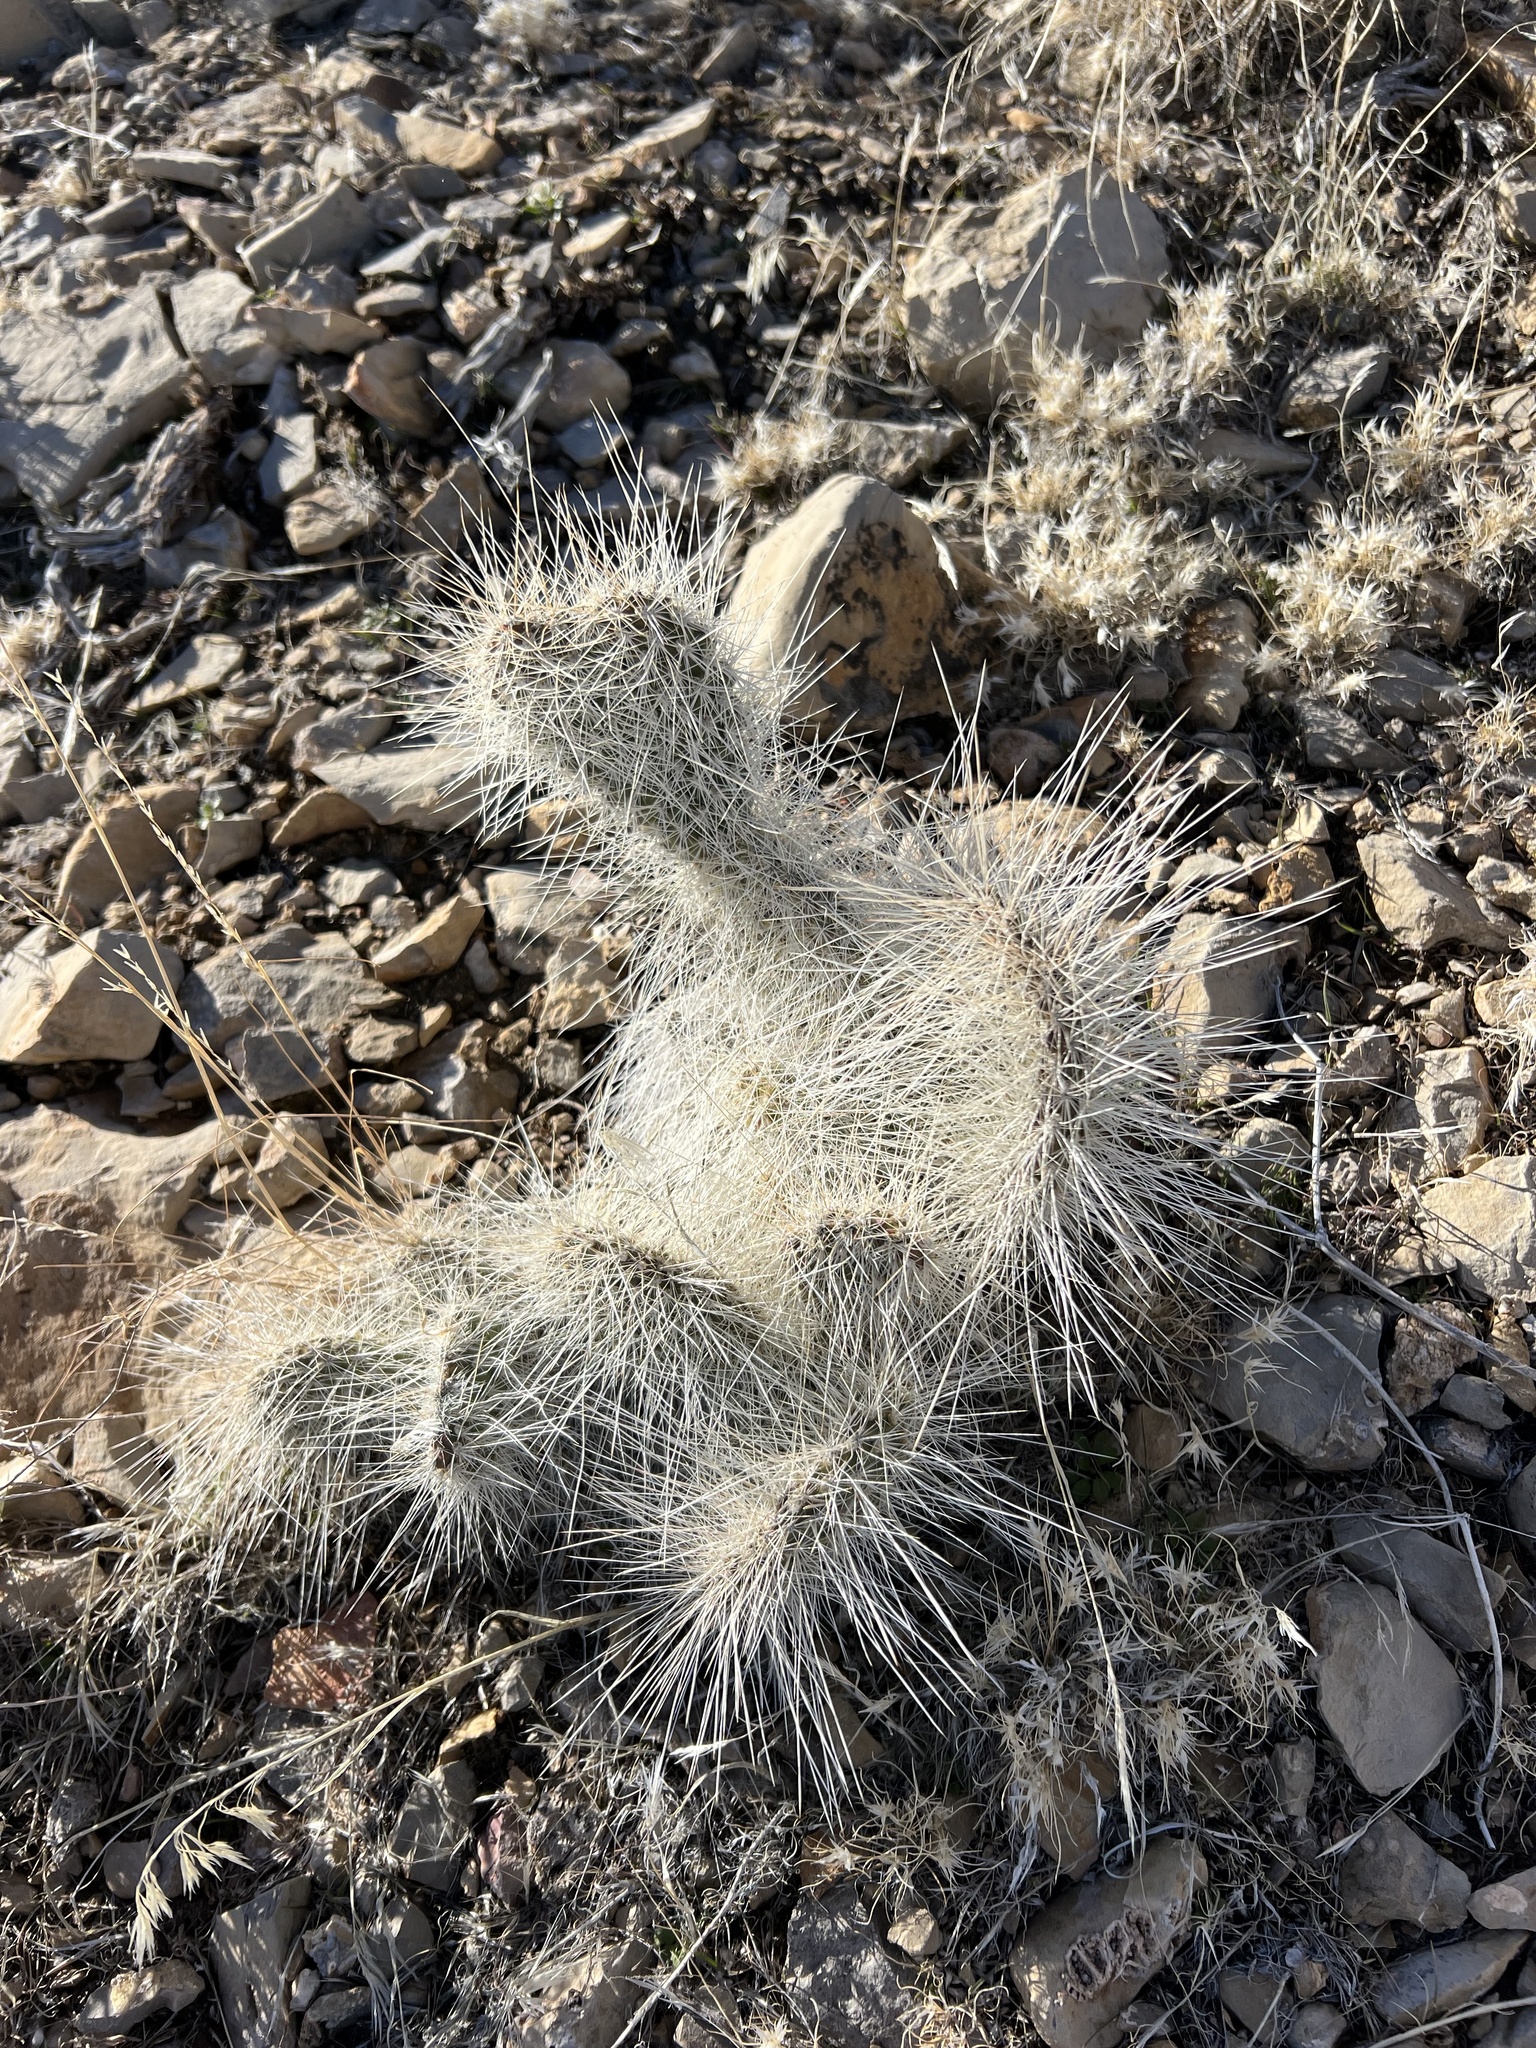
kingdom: Plantae
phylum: Tracheophyta
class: Magnoliopsida
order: Caryophyllales
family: Cactaceae
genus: Opuntia
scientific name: Opuntia polyacantha
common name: Plains prickly-pear
